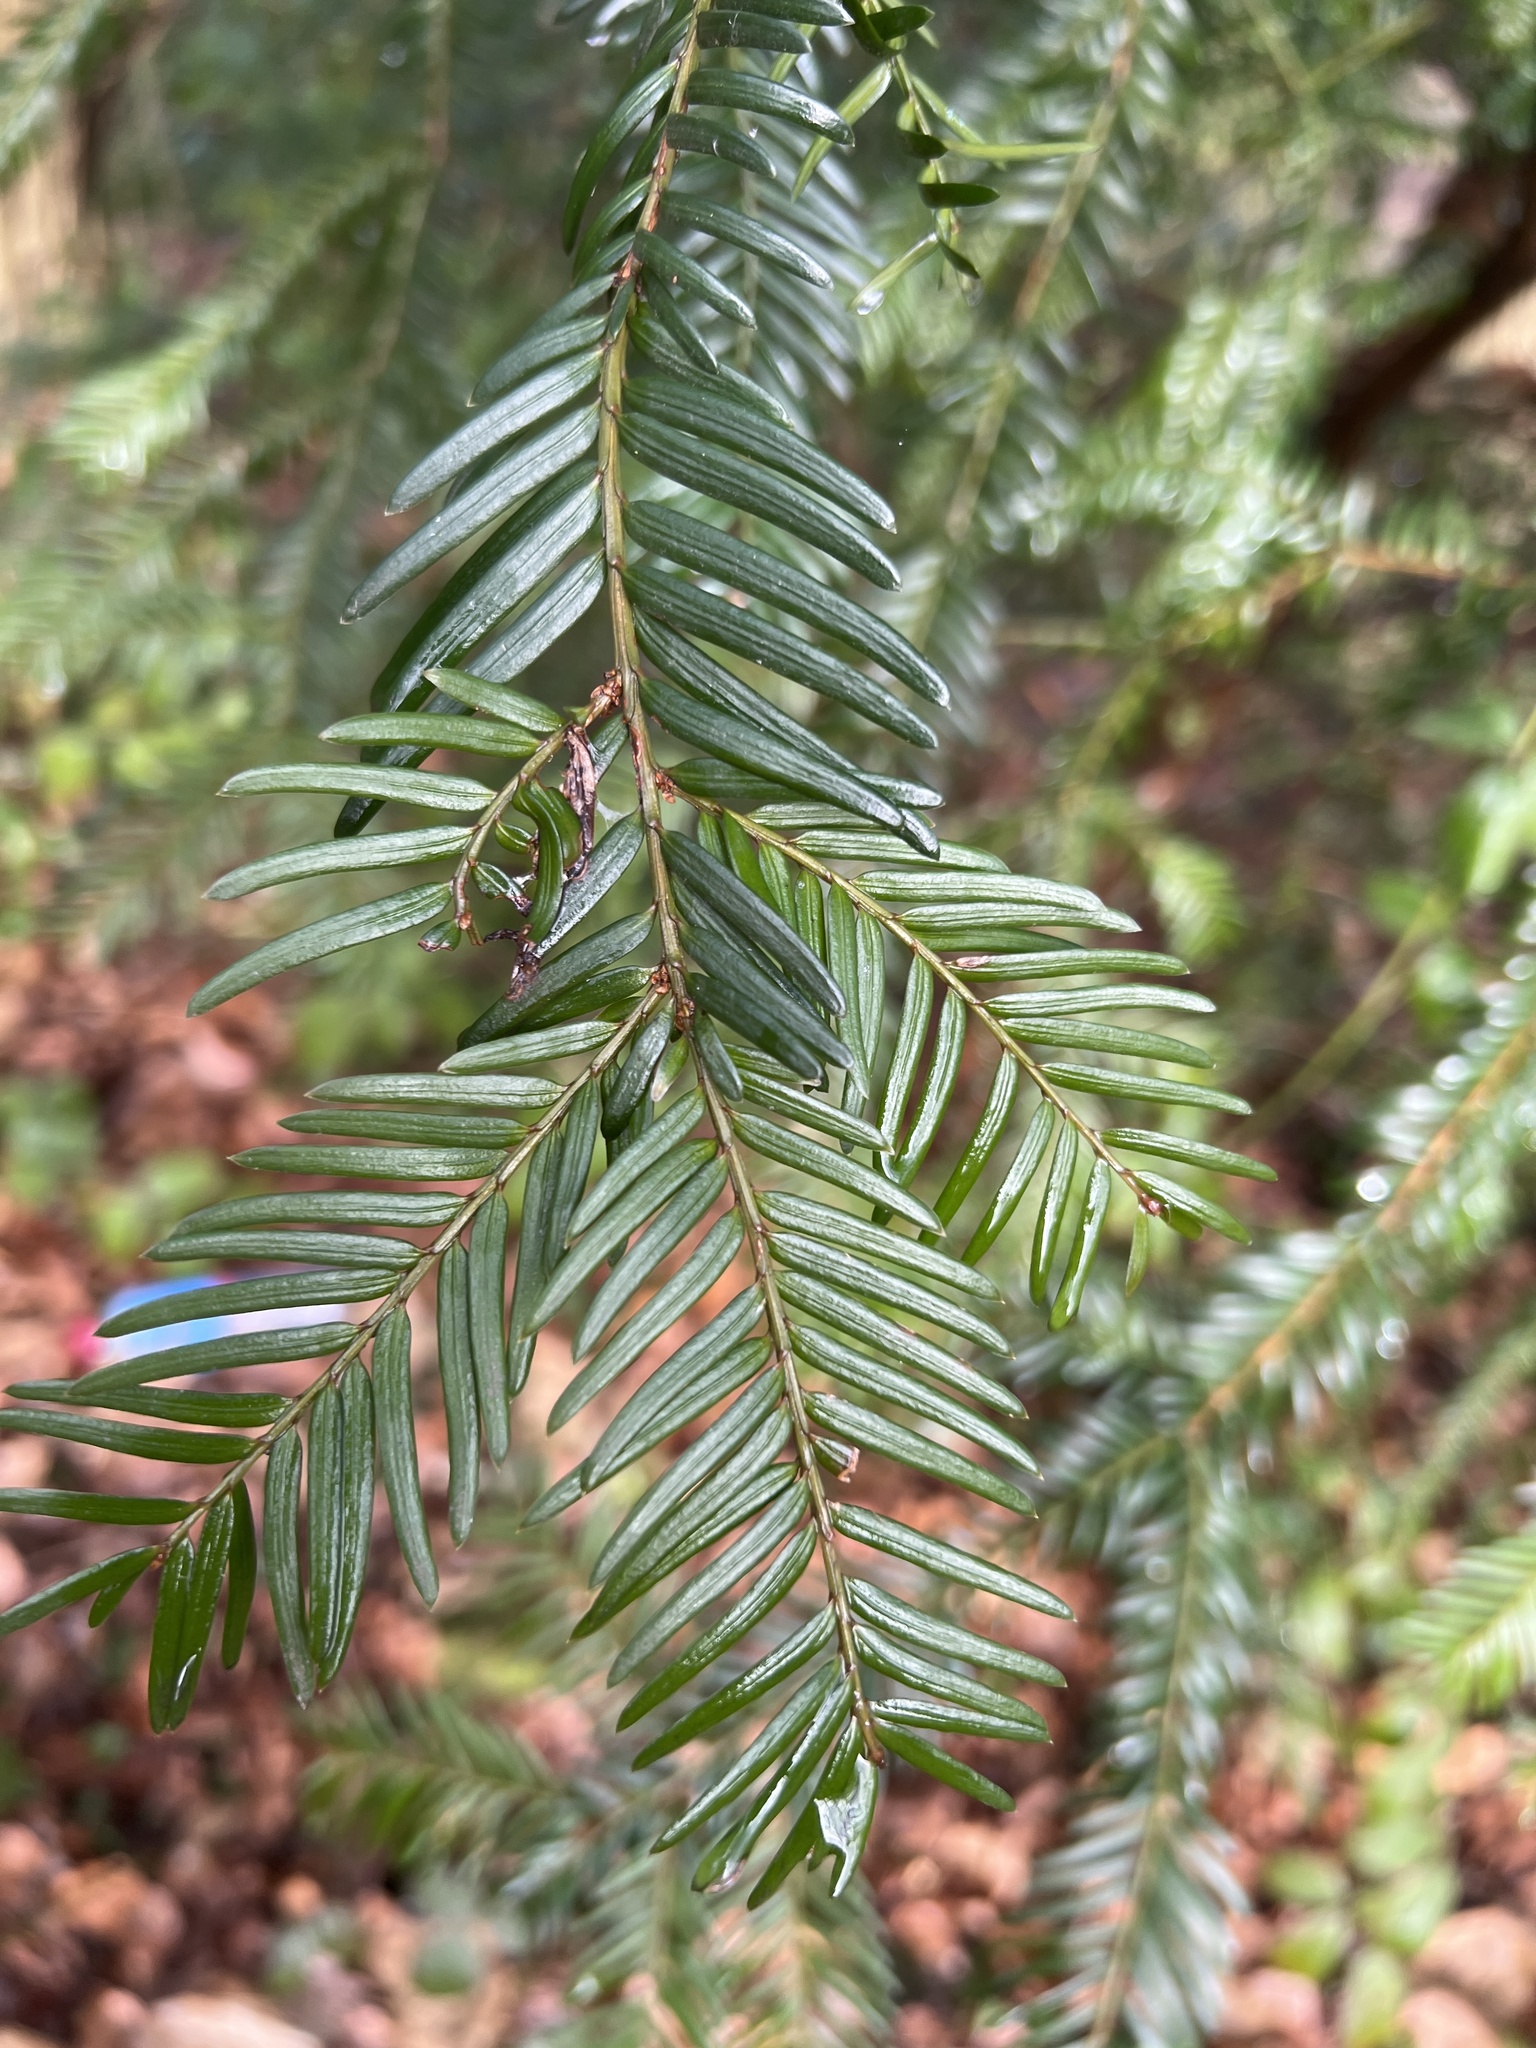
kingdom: Plantae
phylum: Tracheophyta
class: Pinopsida
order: Pinales
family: Taxaceae
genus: Taxus
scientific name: Taxus baccata
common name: Yew
